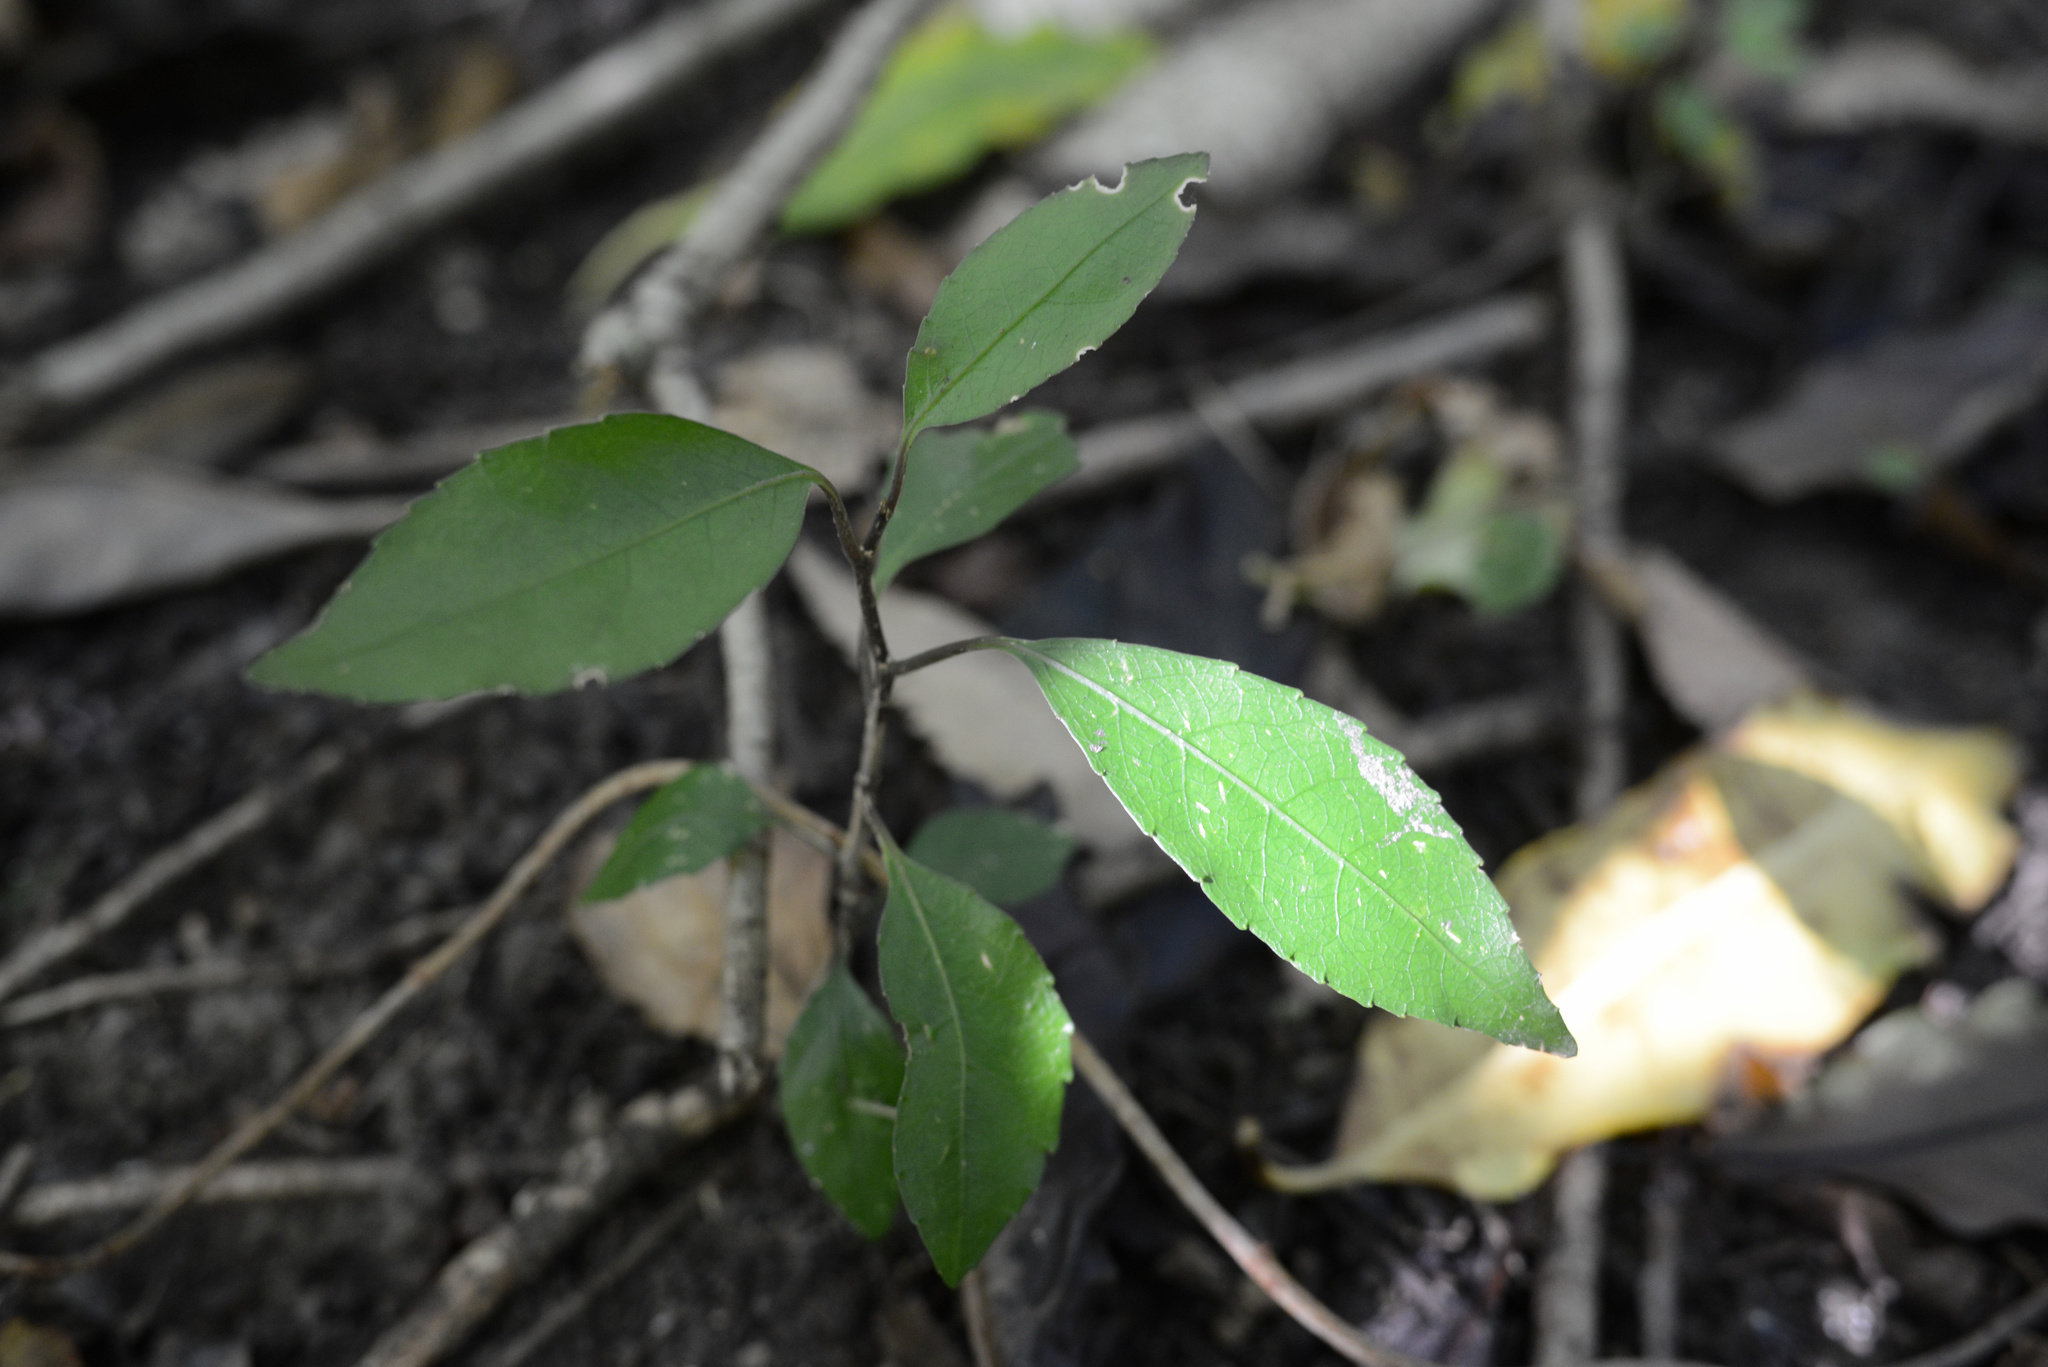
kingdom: Plantae
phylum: Tracheophyta
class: Magnoliopsida
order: Malpighiales
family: Violaceae
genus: Melicytus
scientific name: Melicytus ramiflorus
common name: Mahoe
